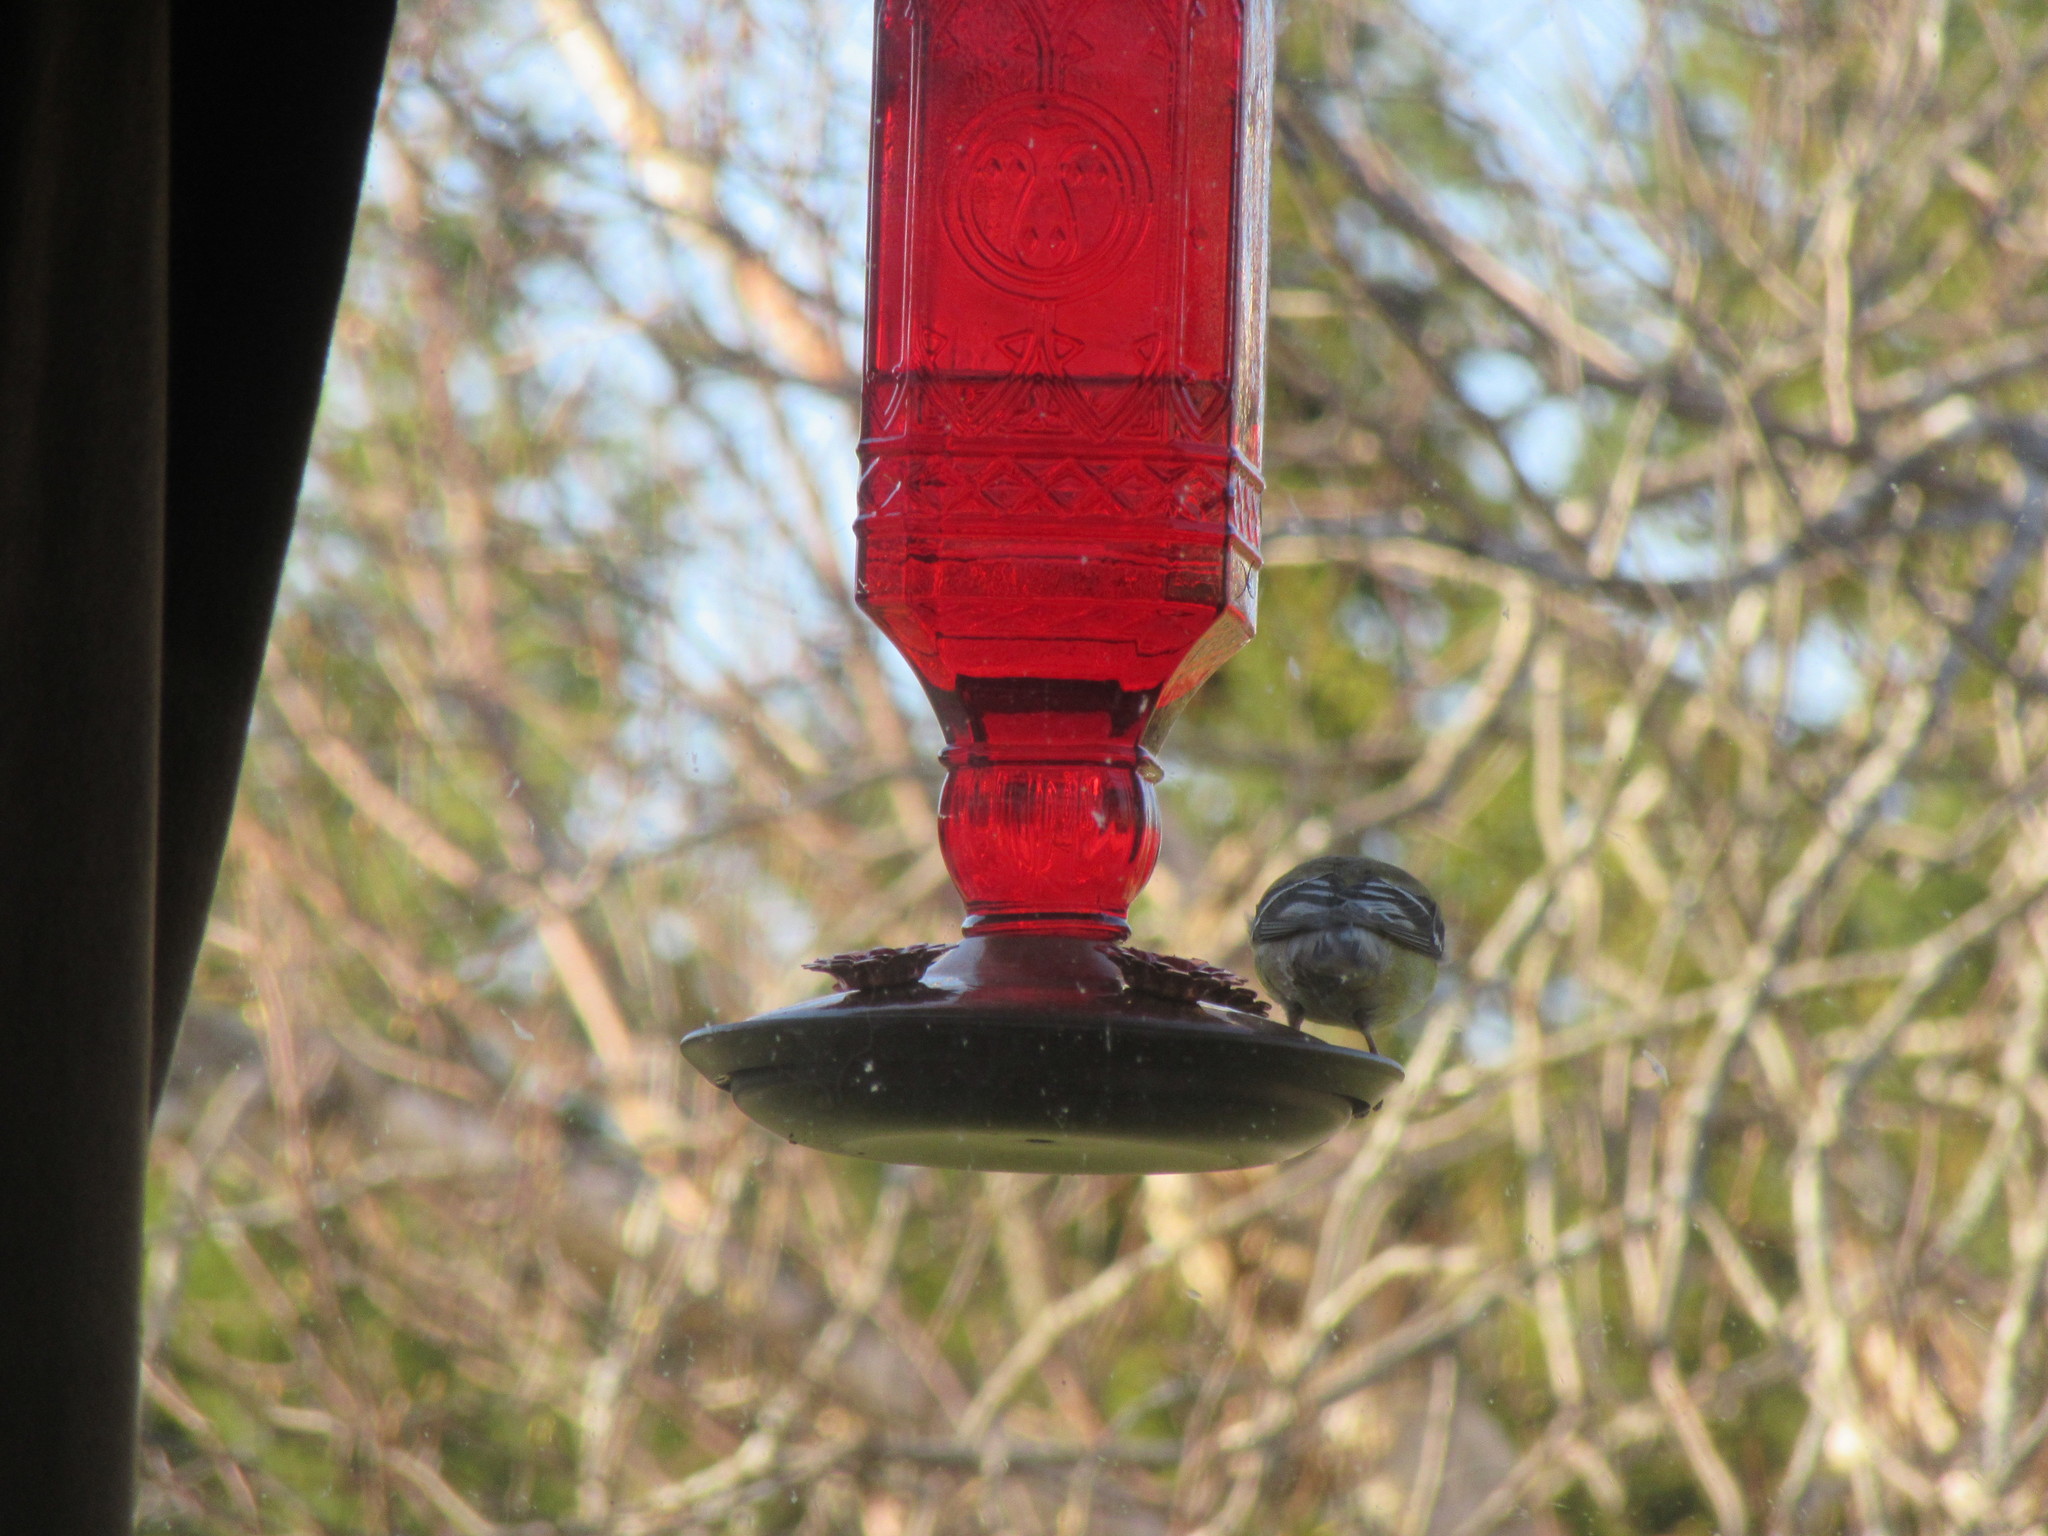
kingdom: Animalia
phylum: Chordata
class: Aves
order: Passeriformes
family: Fringillidae
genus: Spinus
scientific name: Spinus tristis
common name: American goldfinch
